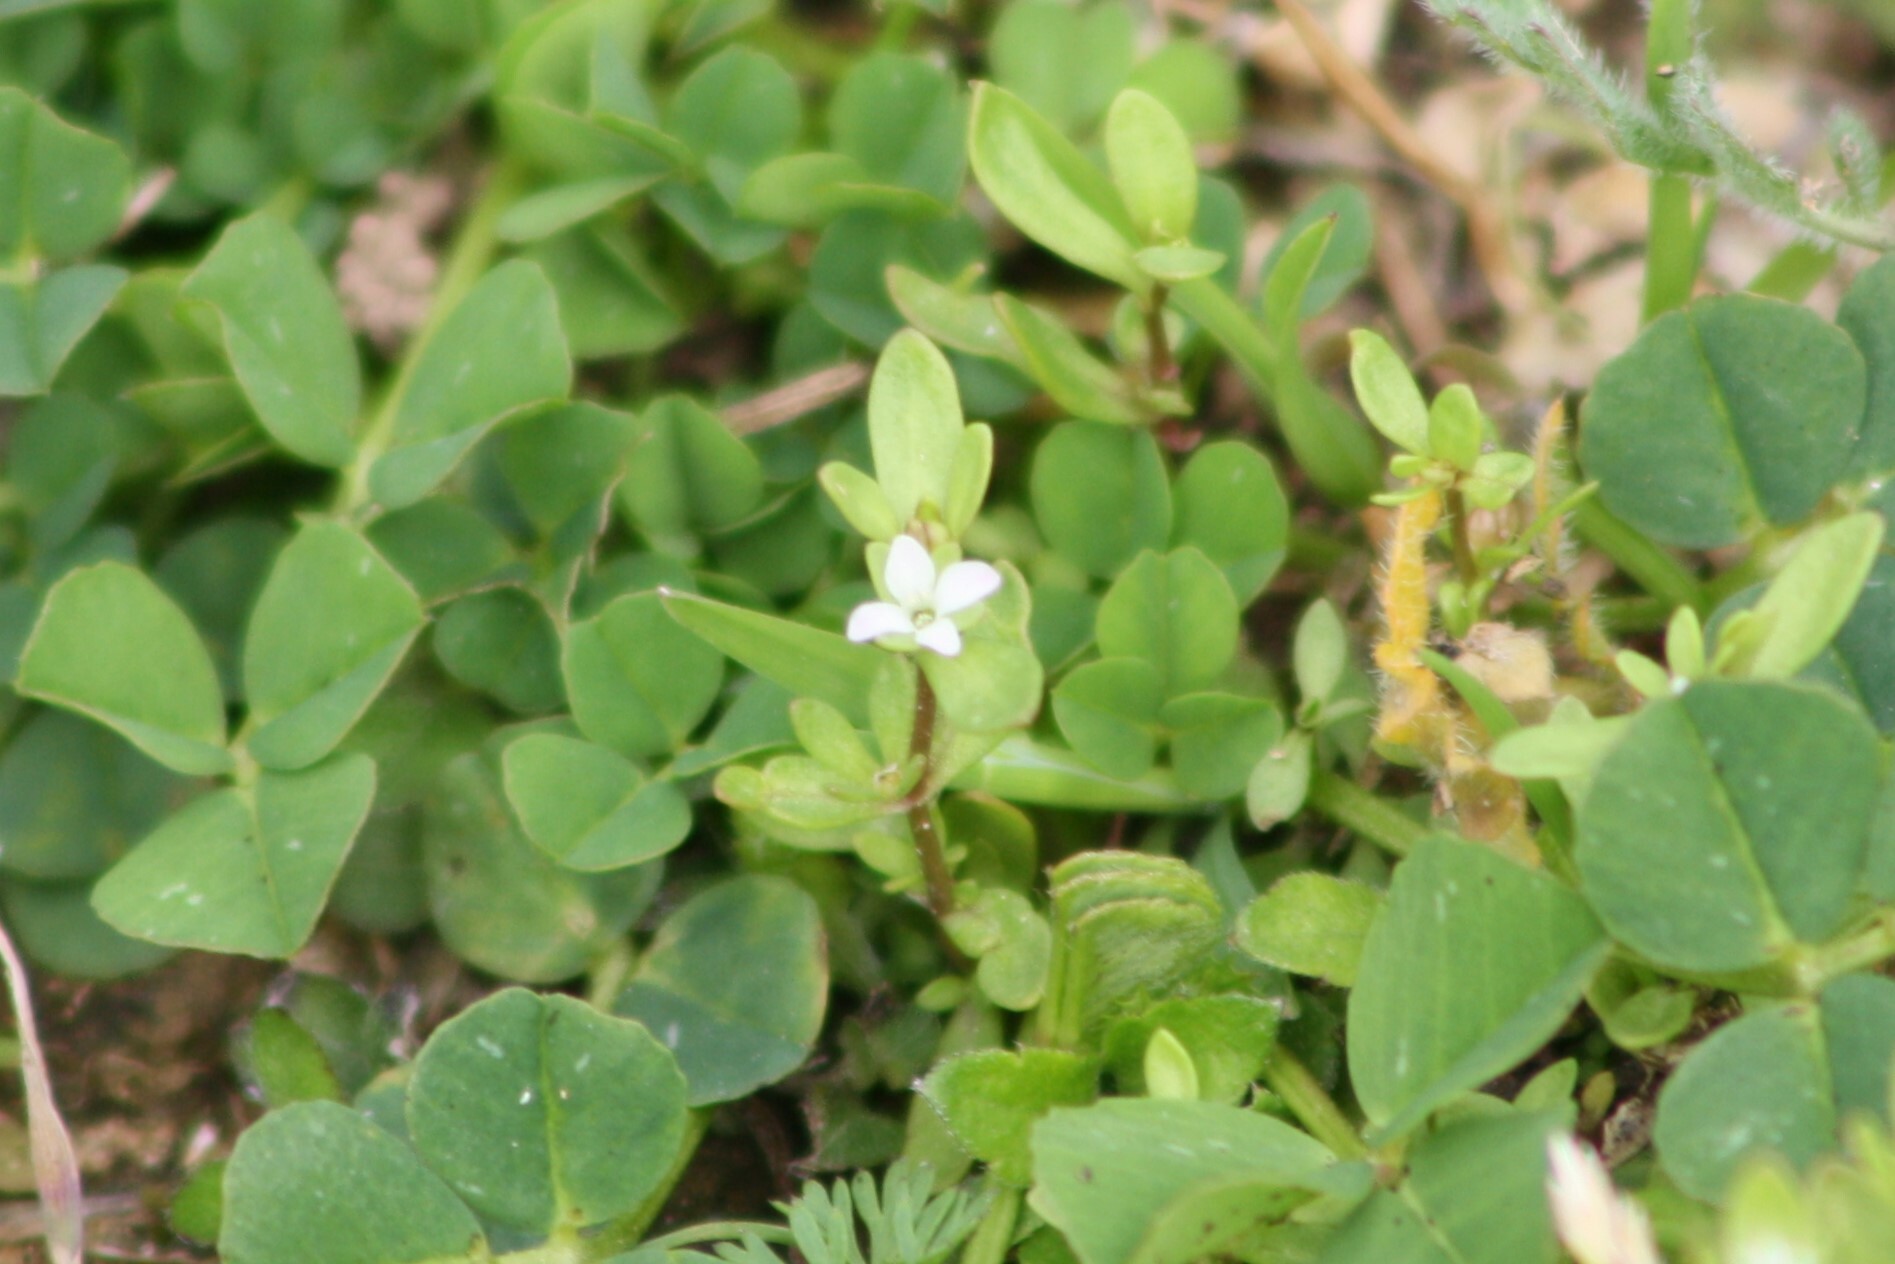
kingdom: Plantae
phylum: Tracheophyta
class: Magnoliopsida
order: Lamiales
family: Plantaginaceae
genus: Veronica
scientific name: Veronica peregrina
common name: Neckweed
